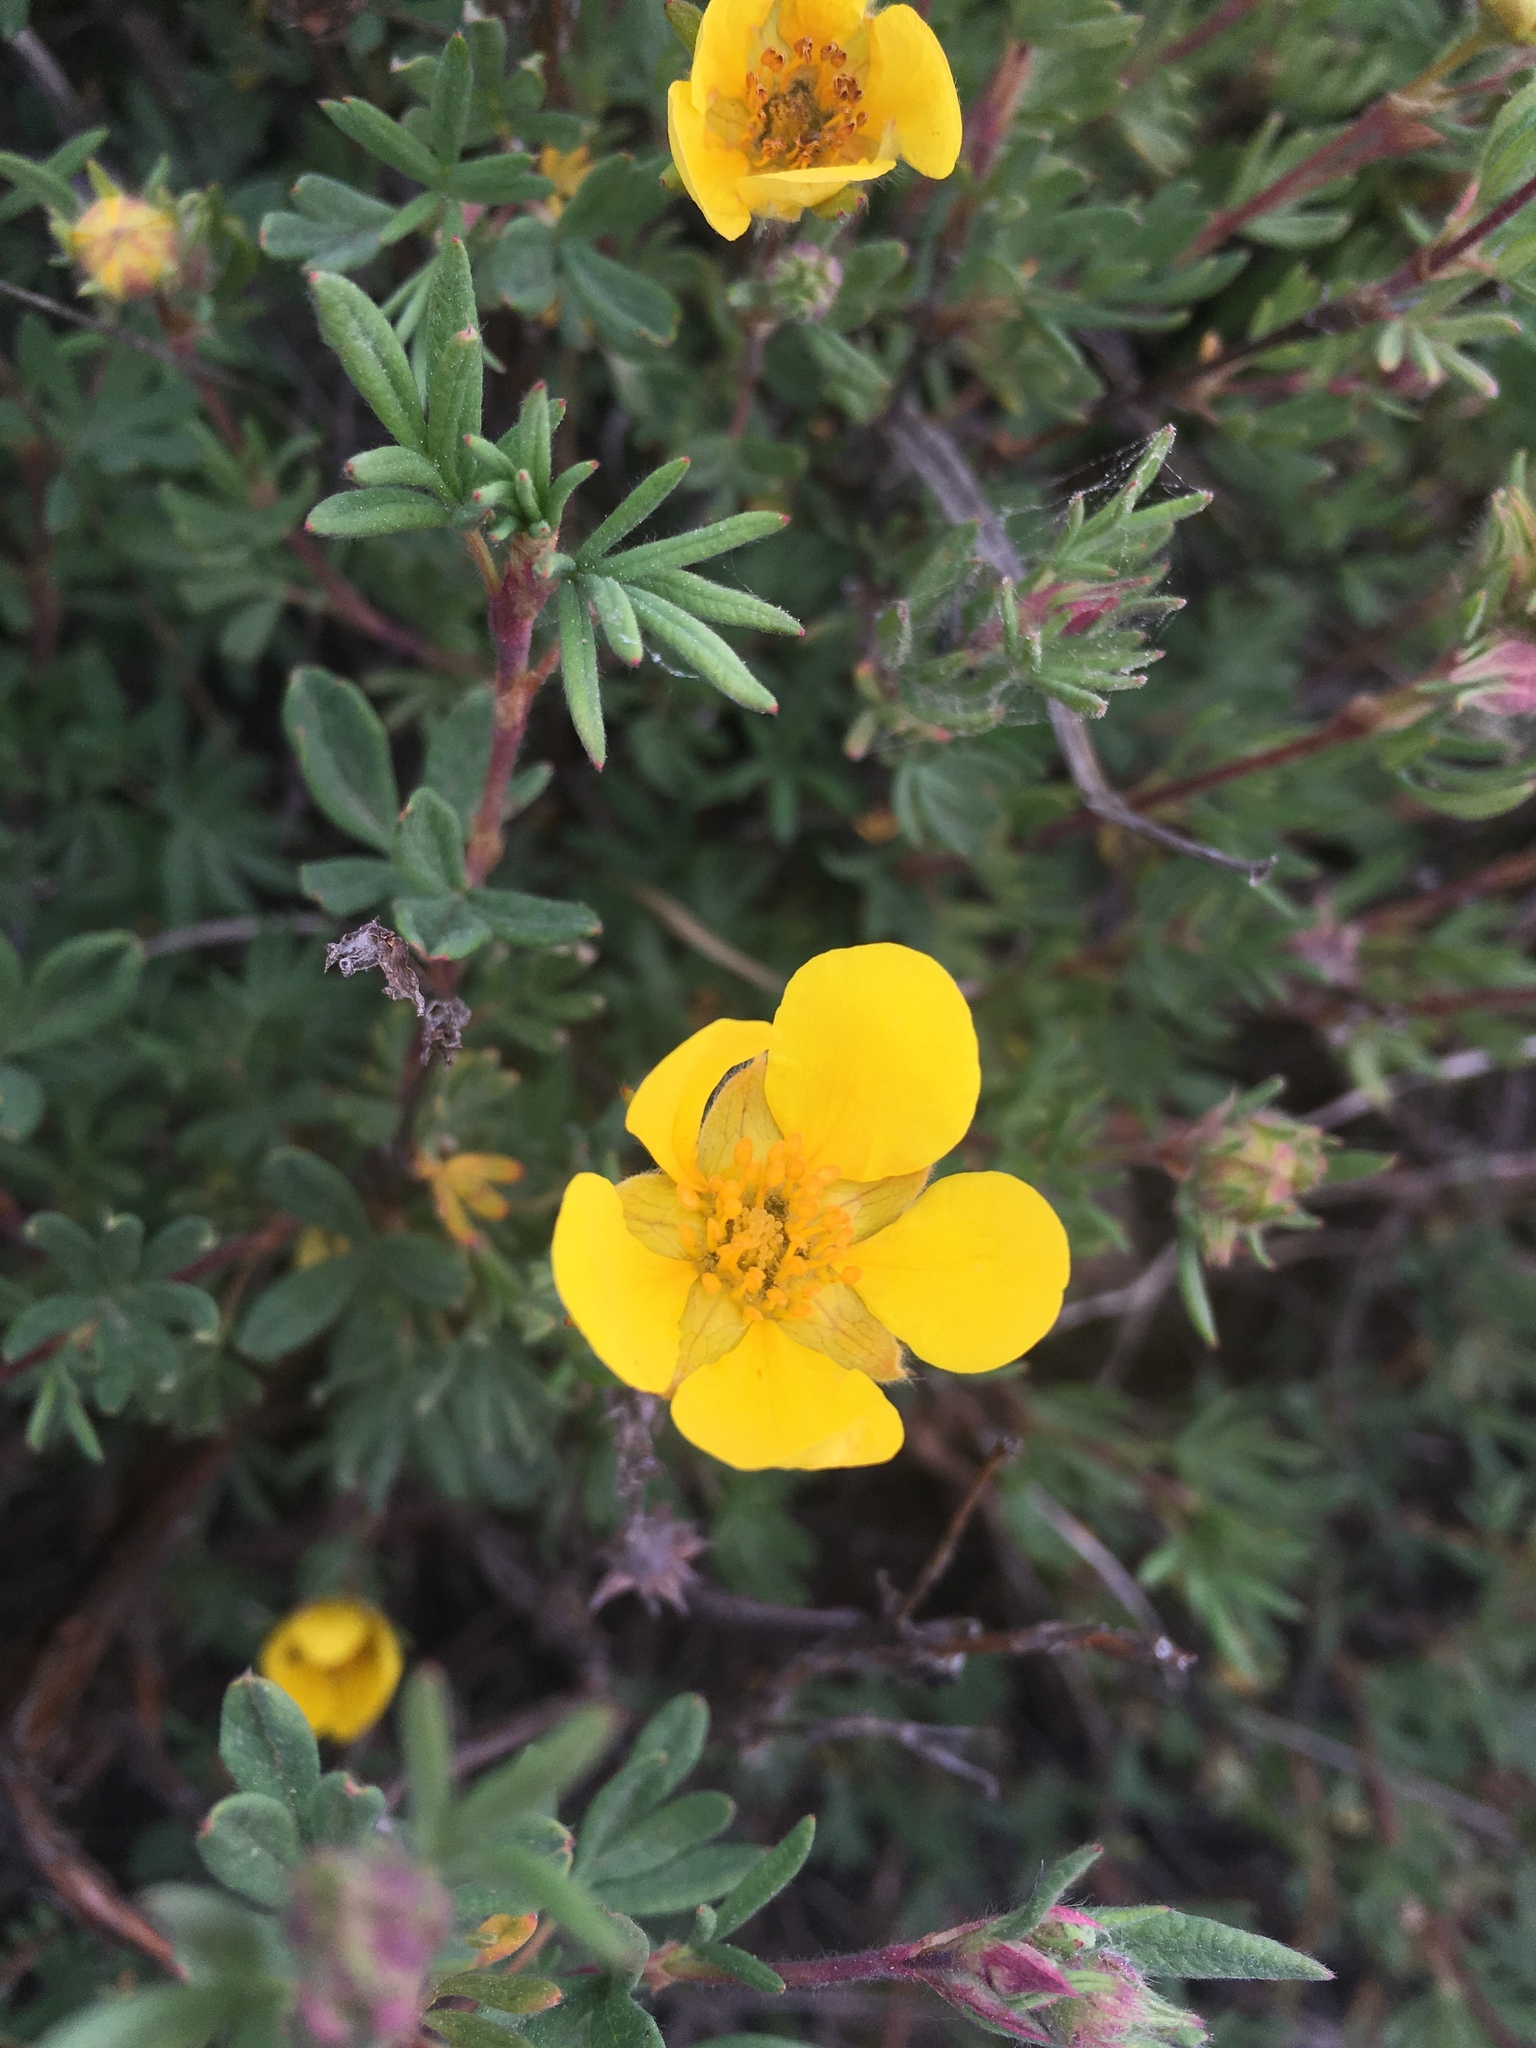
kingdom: Plantae
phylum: Tracheophyta
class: Magnoliopsida
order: Rosales
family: Rosaceae
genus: Dasiphora
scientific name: Dasiphora fruticosa
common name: Shrubby cinquefoil
